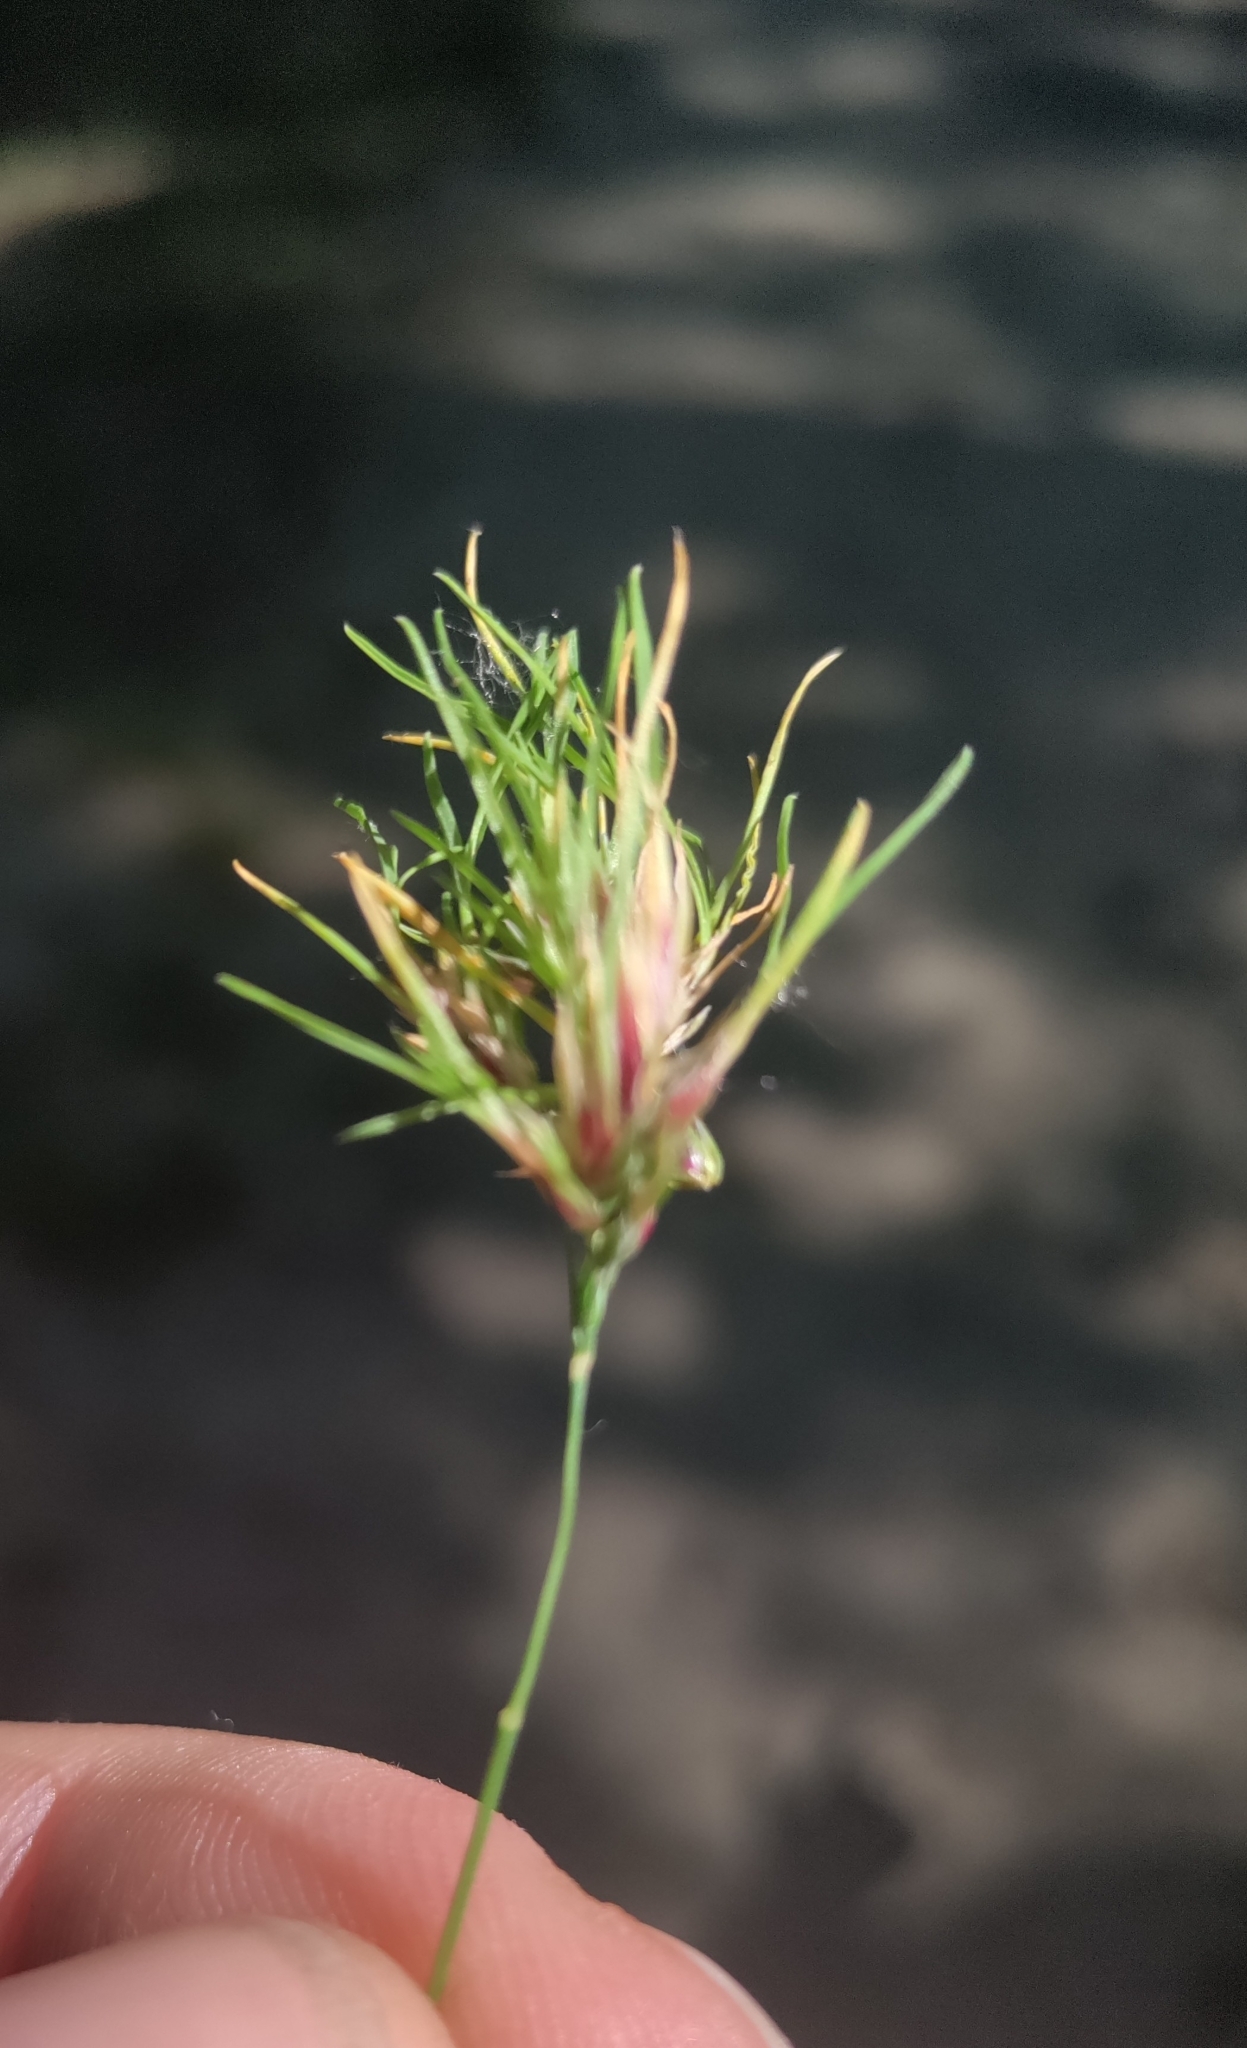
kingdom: Plantae
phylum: Tracheophyta
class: Liliopsida
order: Poales
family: Poaceae
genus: Poa
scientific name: Poa bulbosa
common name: Bulbous bluegrass
